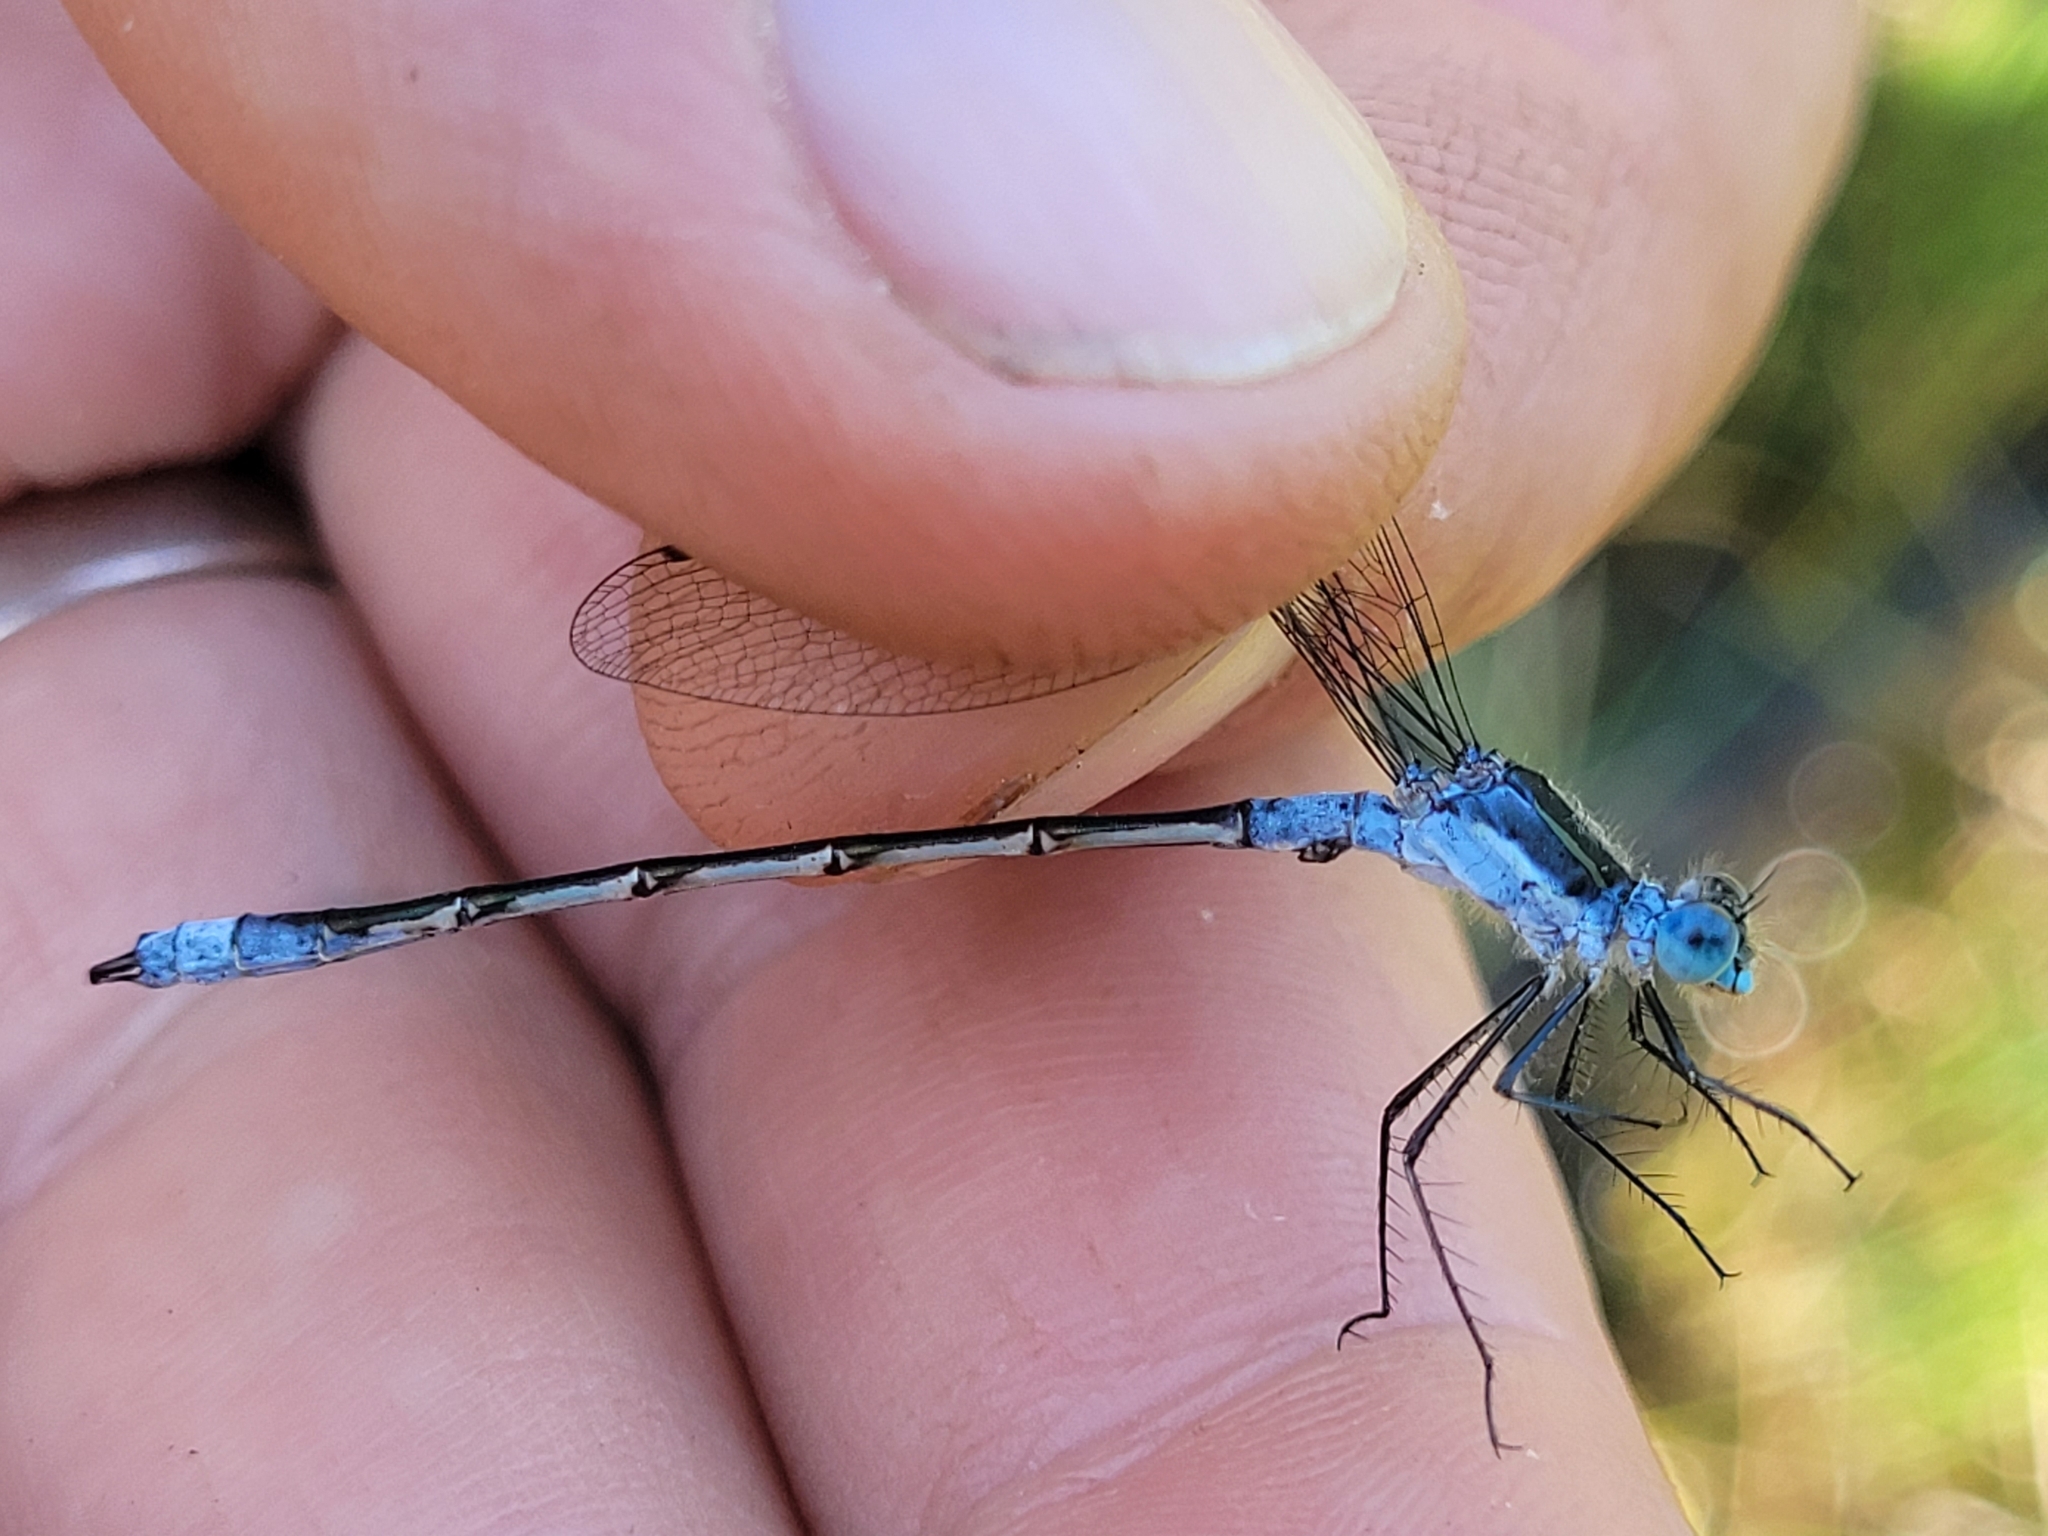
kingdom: Animalia
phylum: Arthropoda
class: Insecta
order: Odonata
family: Lestidae
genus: Lestes
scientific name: Lestes disjunctus
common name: Northern spreadwing
